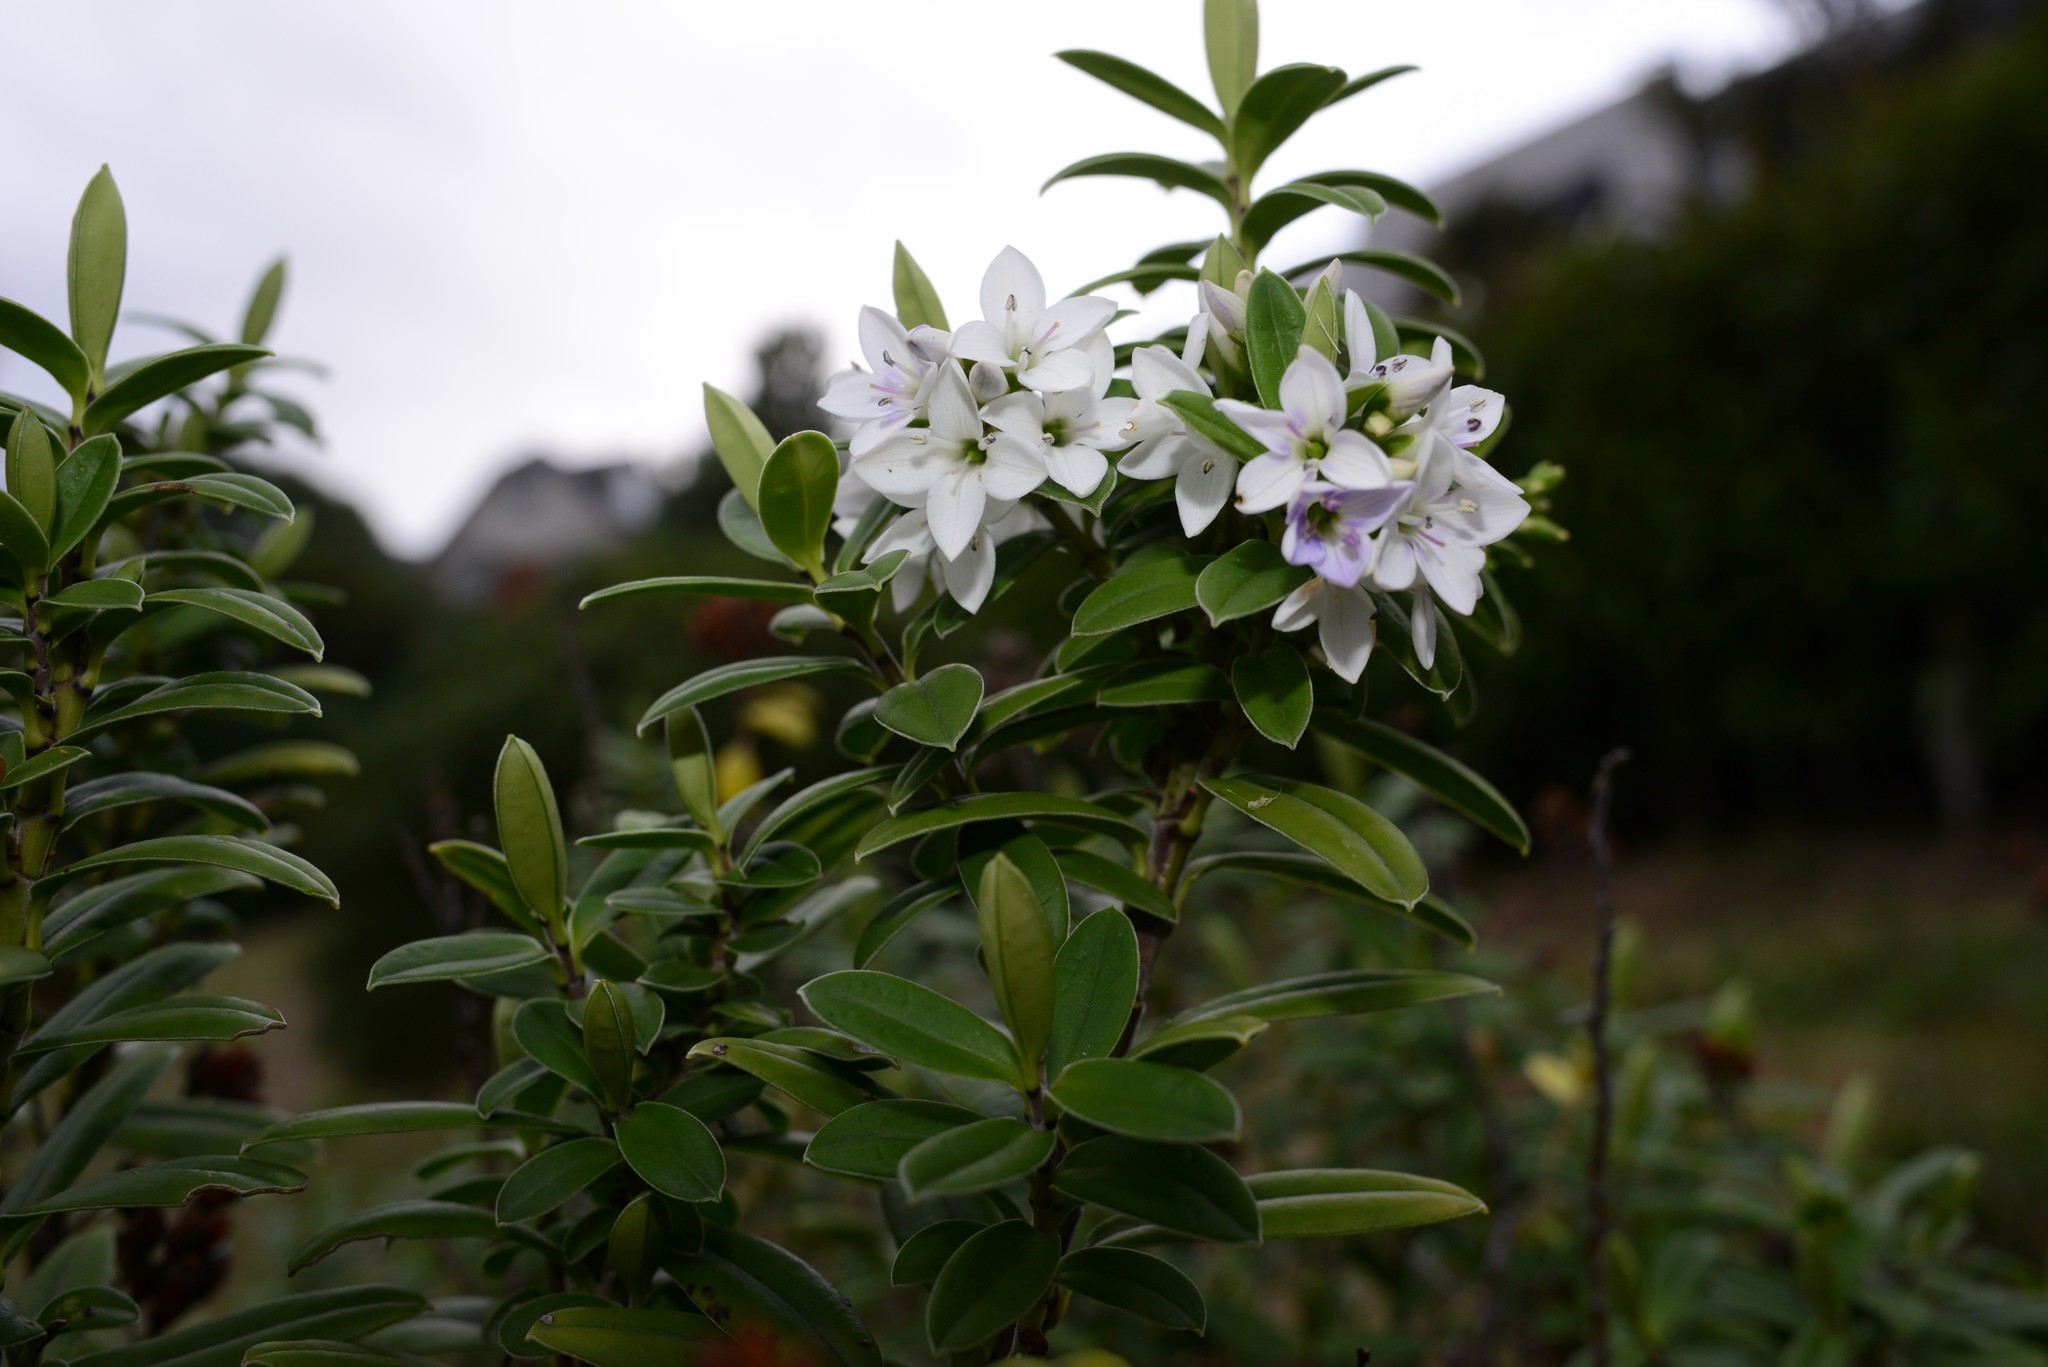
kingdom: Plantae
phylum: Tracheophyta
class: Magnoliopsida
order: Lamiales
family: Plantaginaceae
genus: Veronica
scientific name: Veronica elliptica
